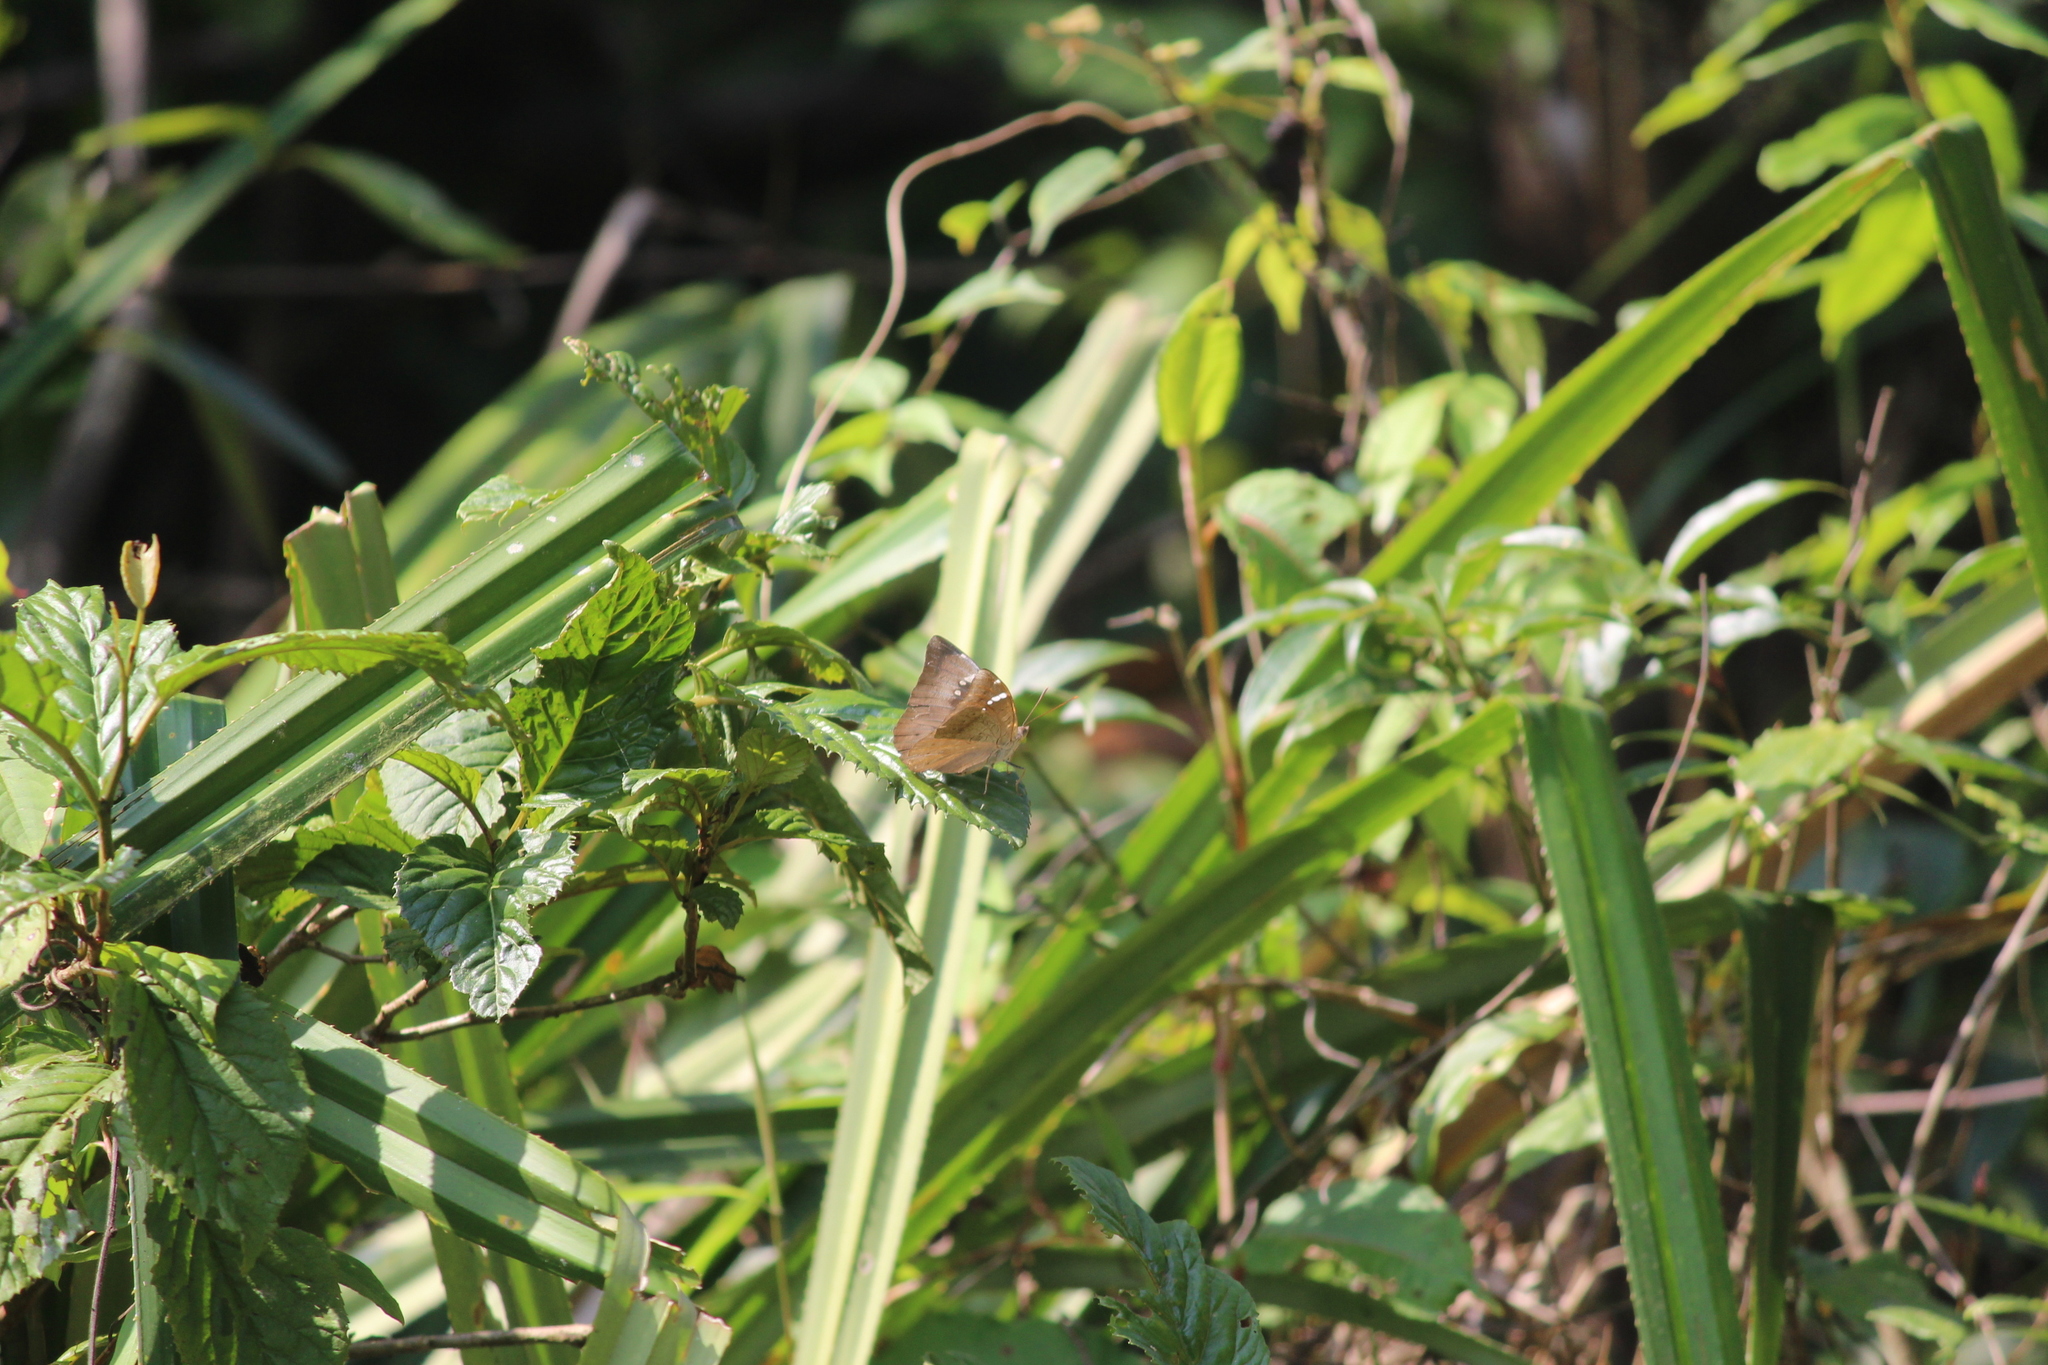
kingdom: Animalia
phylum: Arthropoda
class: Insecta
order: Lepidoptera
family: Nymphalidae
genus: Euthalia
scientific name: Euthalia aconthea
